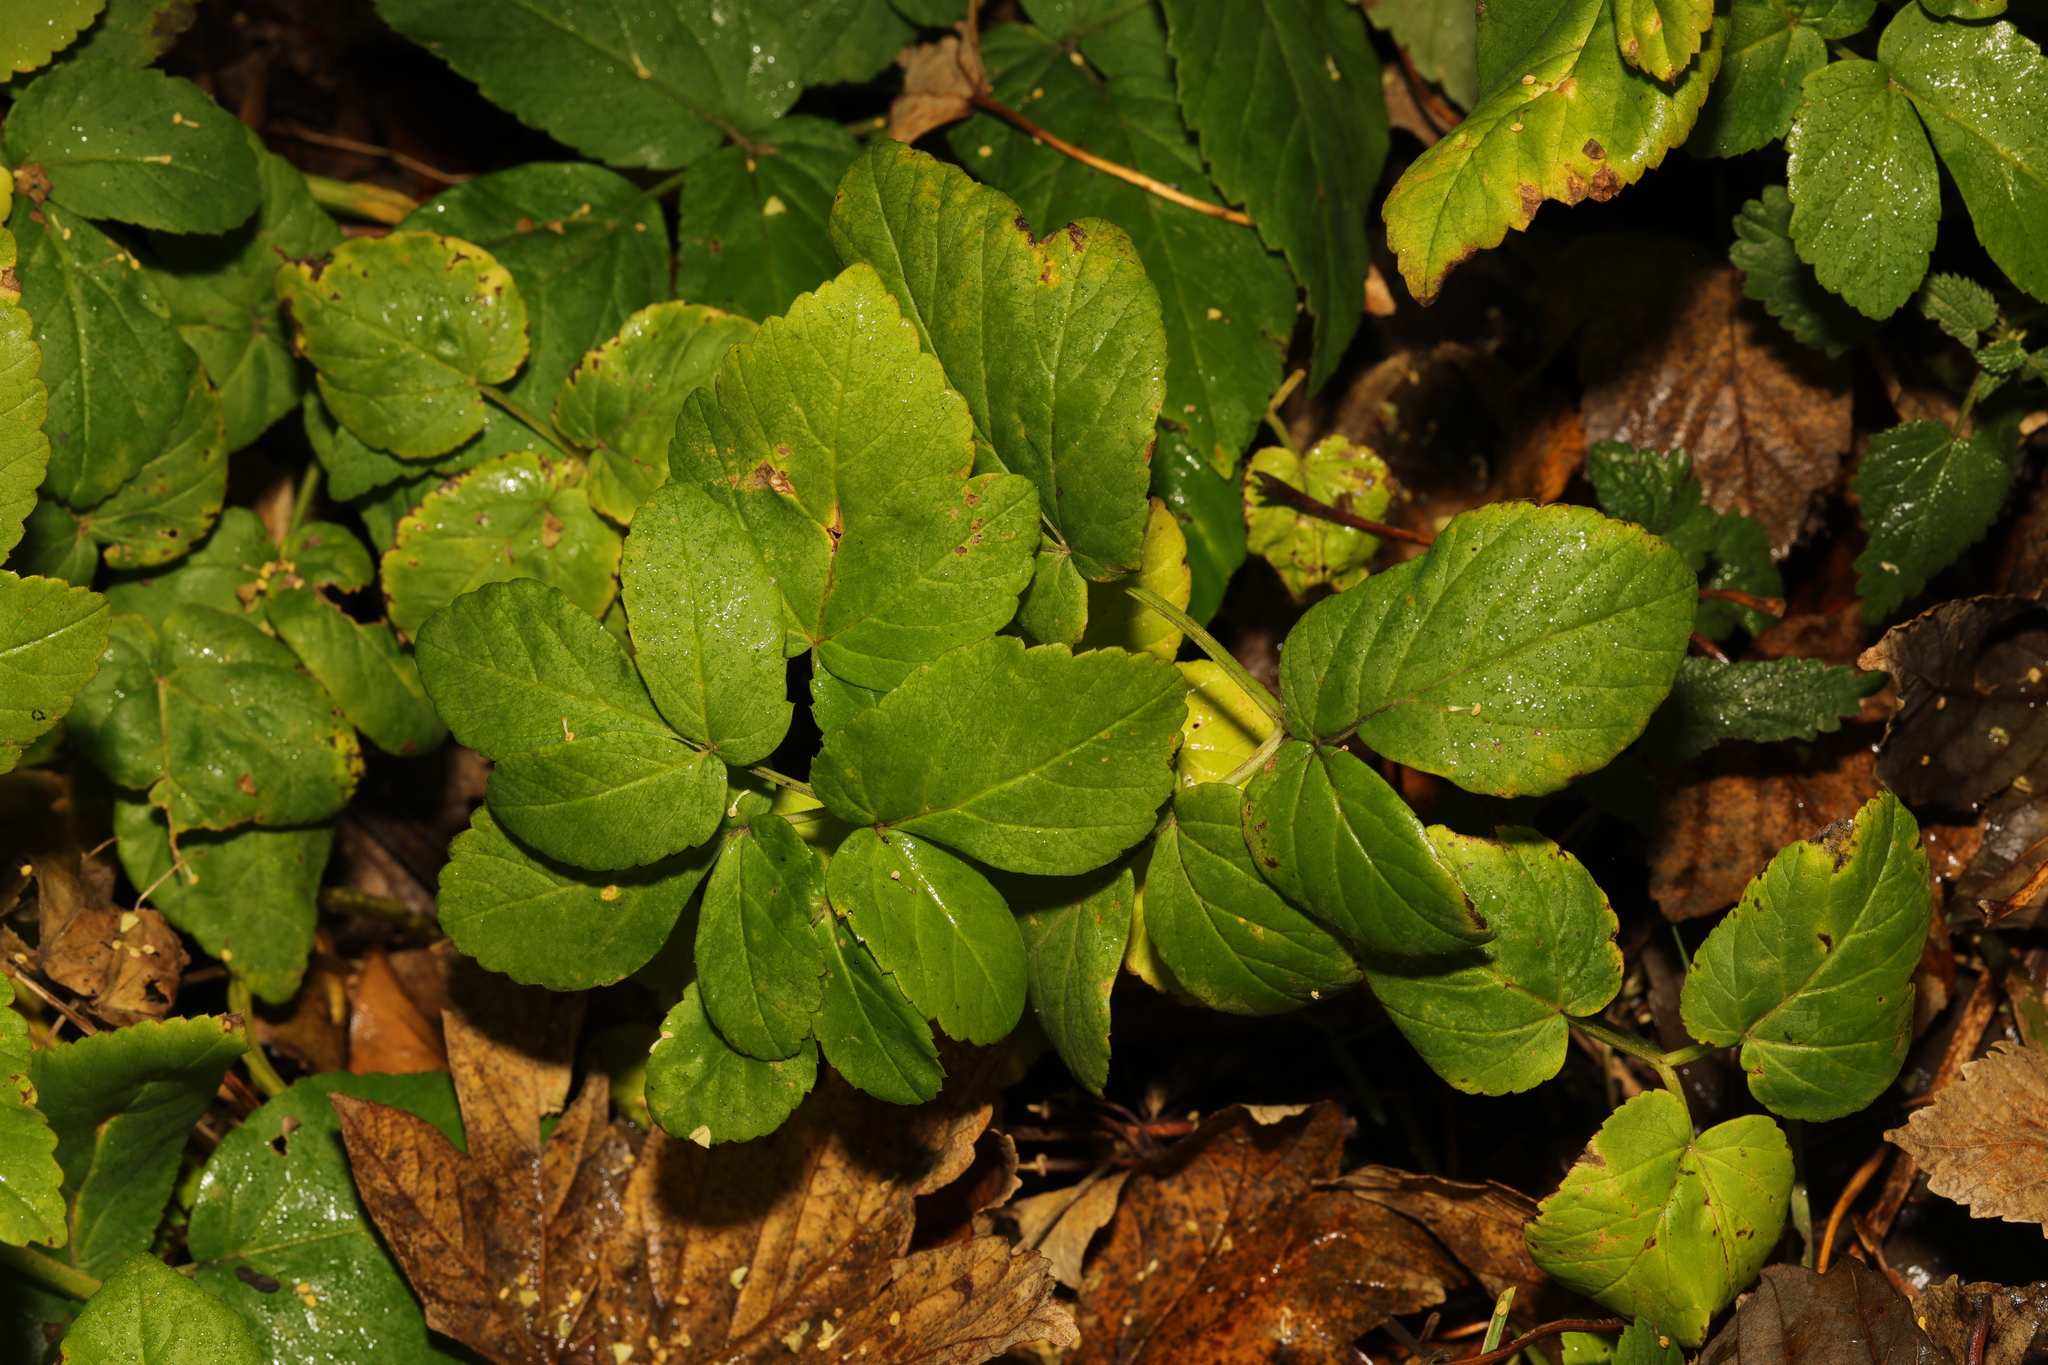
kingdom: Plantae
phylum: Tracheophyta
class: Magnoliopsida
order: Apiales
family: Apiaceae
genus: Aegopodium
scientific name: Aegopodium podagraria
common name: Ground-elder
